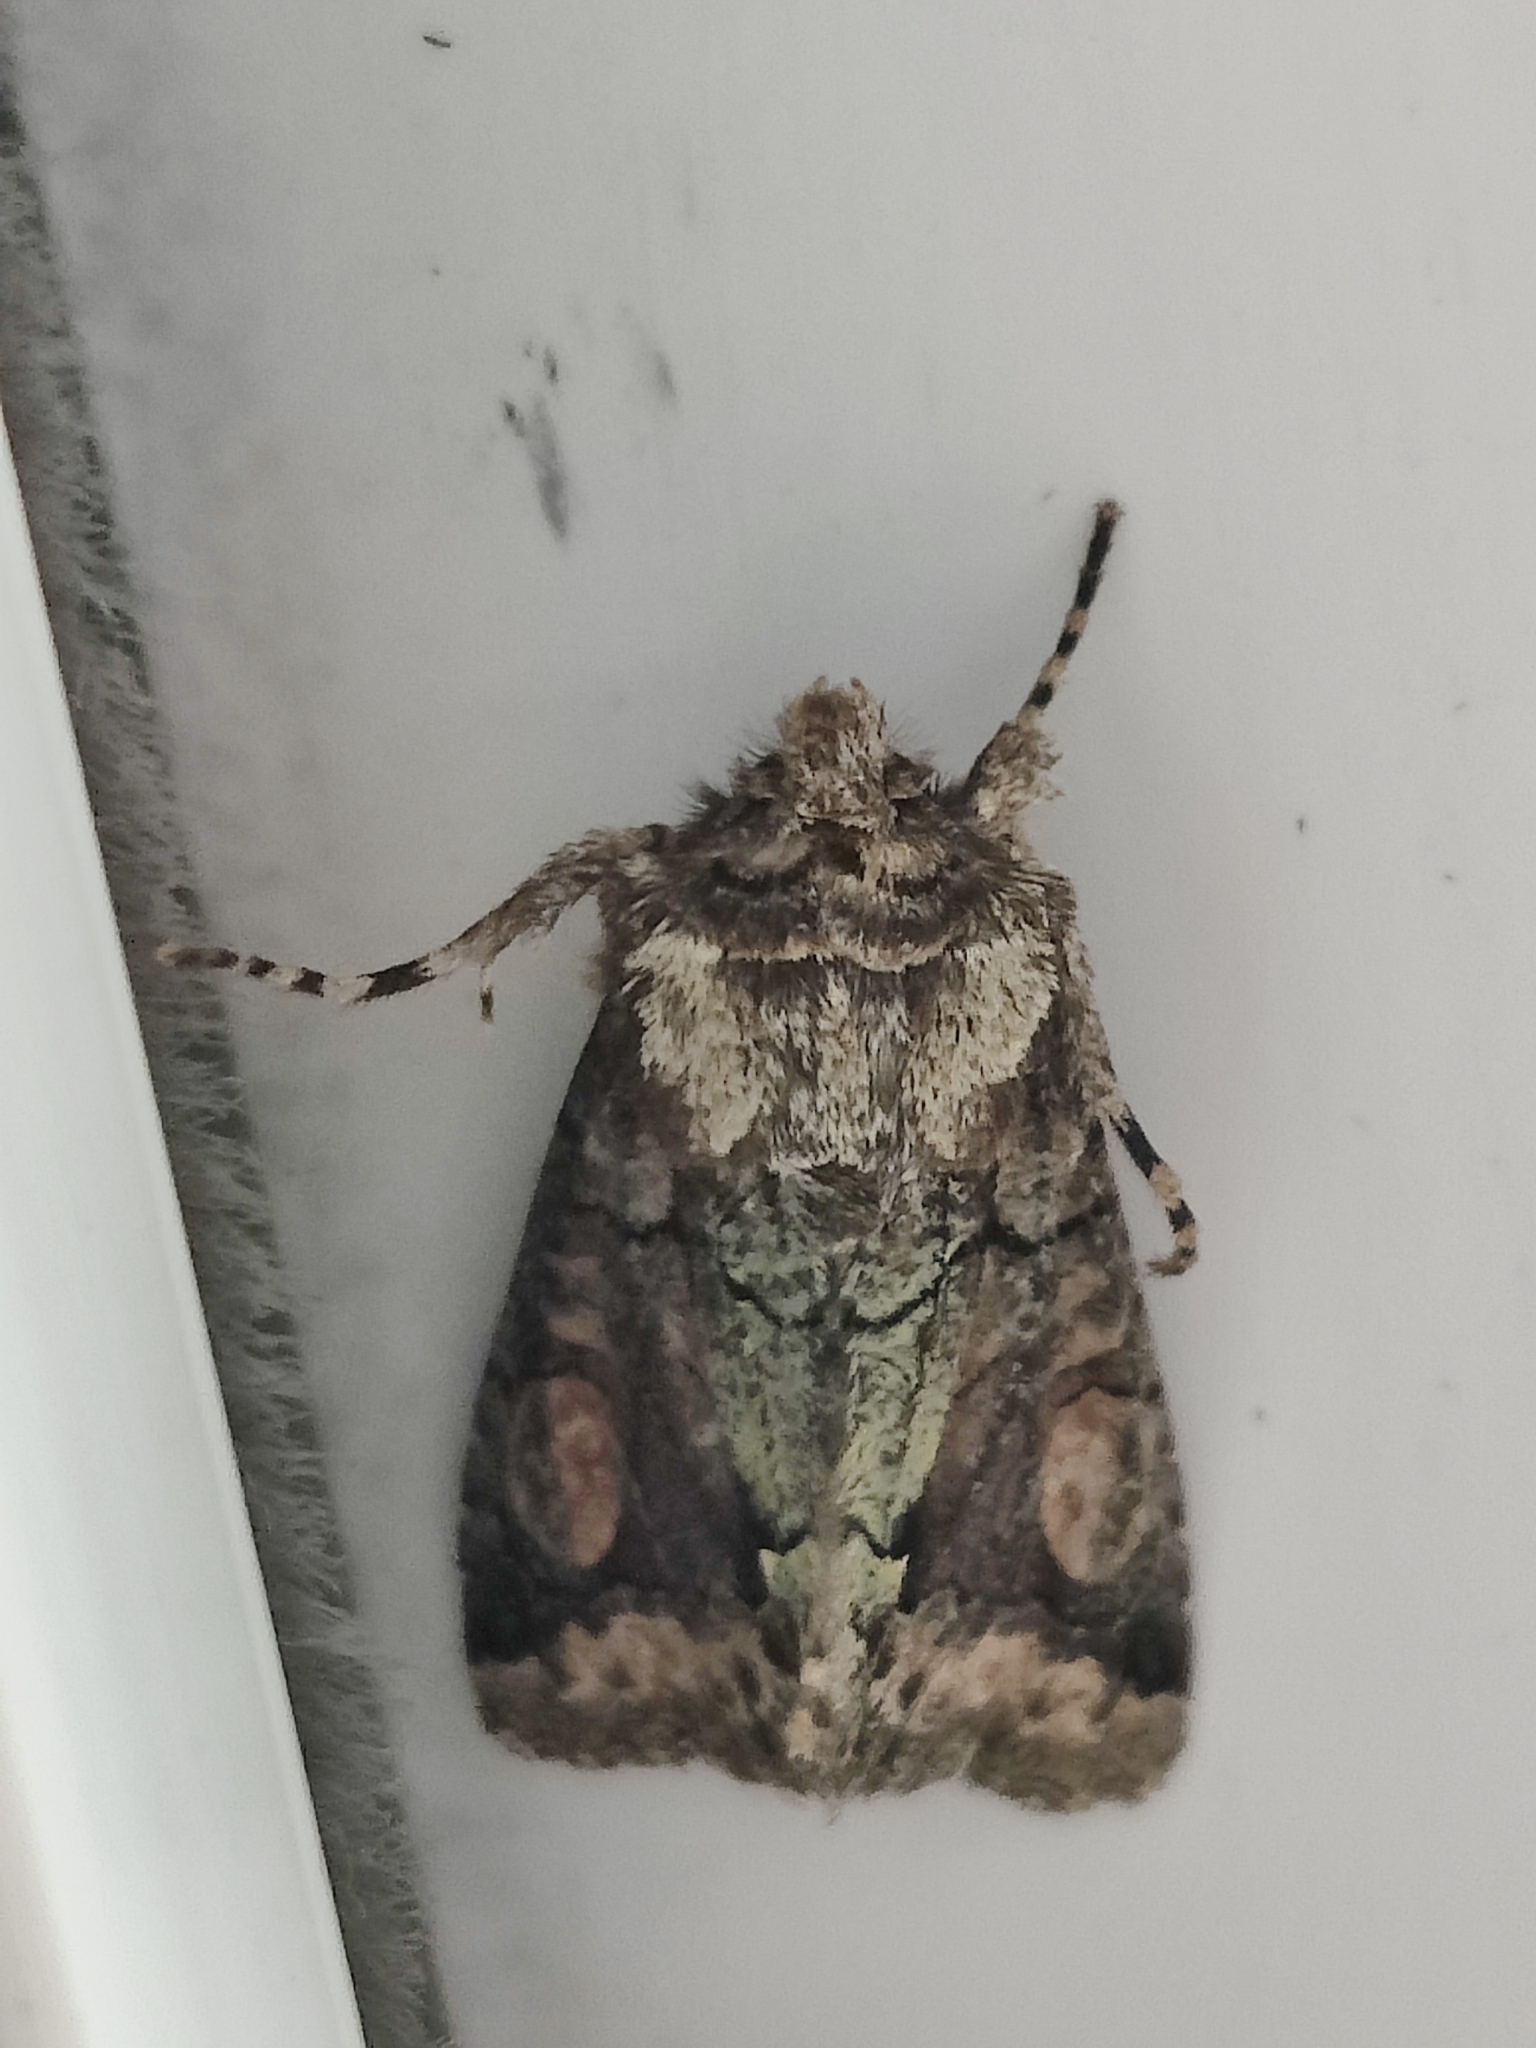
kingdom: Animalia
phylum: Arthropoda
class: Insecta
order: Lepidoptera
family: Noctuidae
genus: Allophyes
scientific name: Allophyes oxyacanthae
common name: Green-brindled crescent
